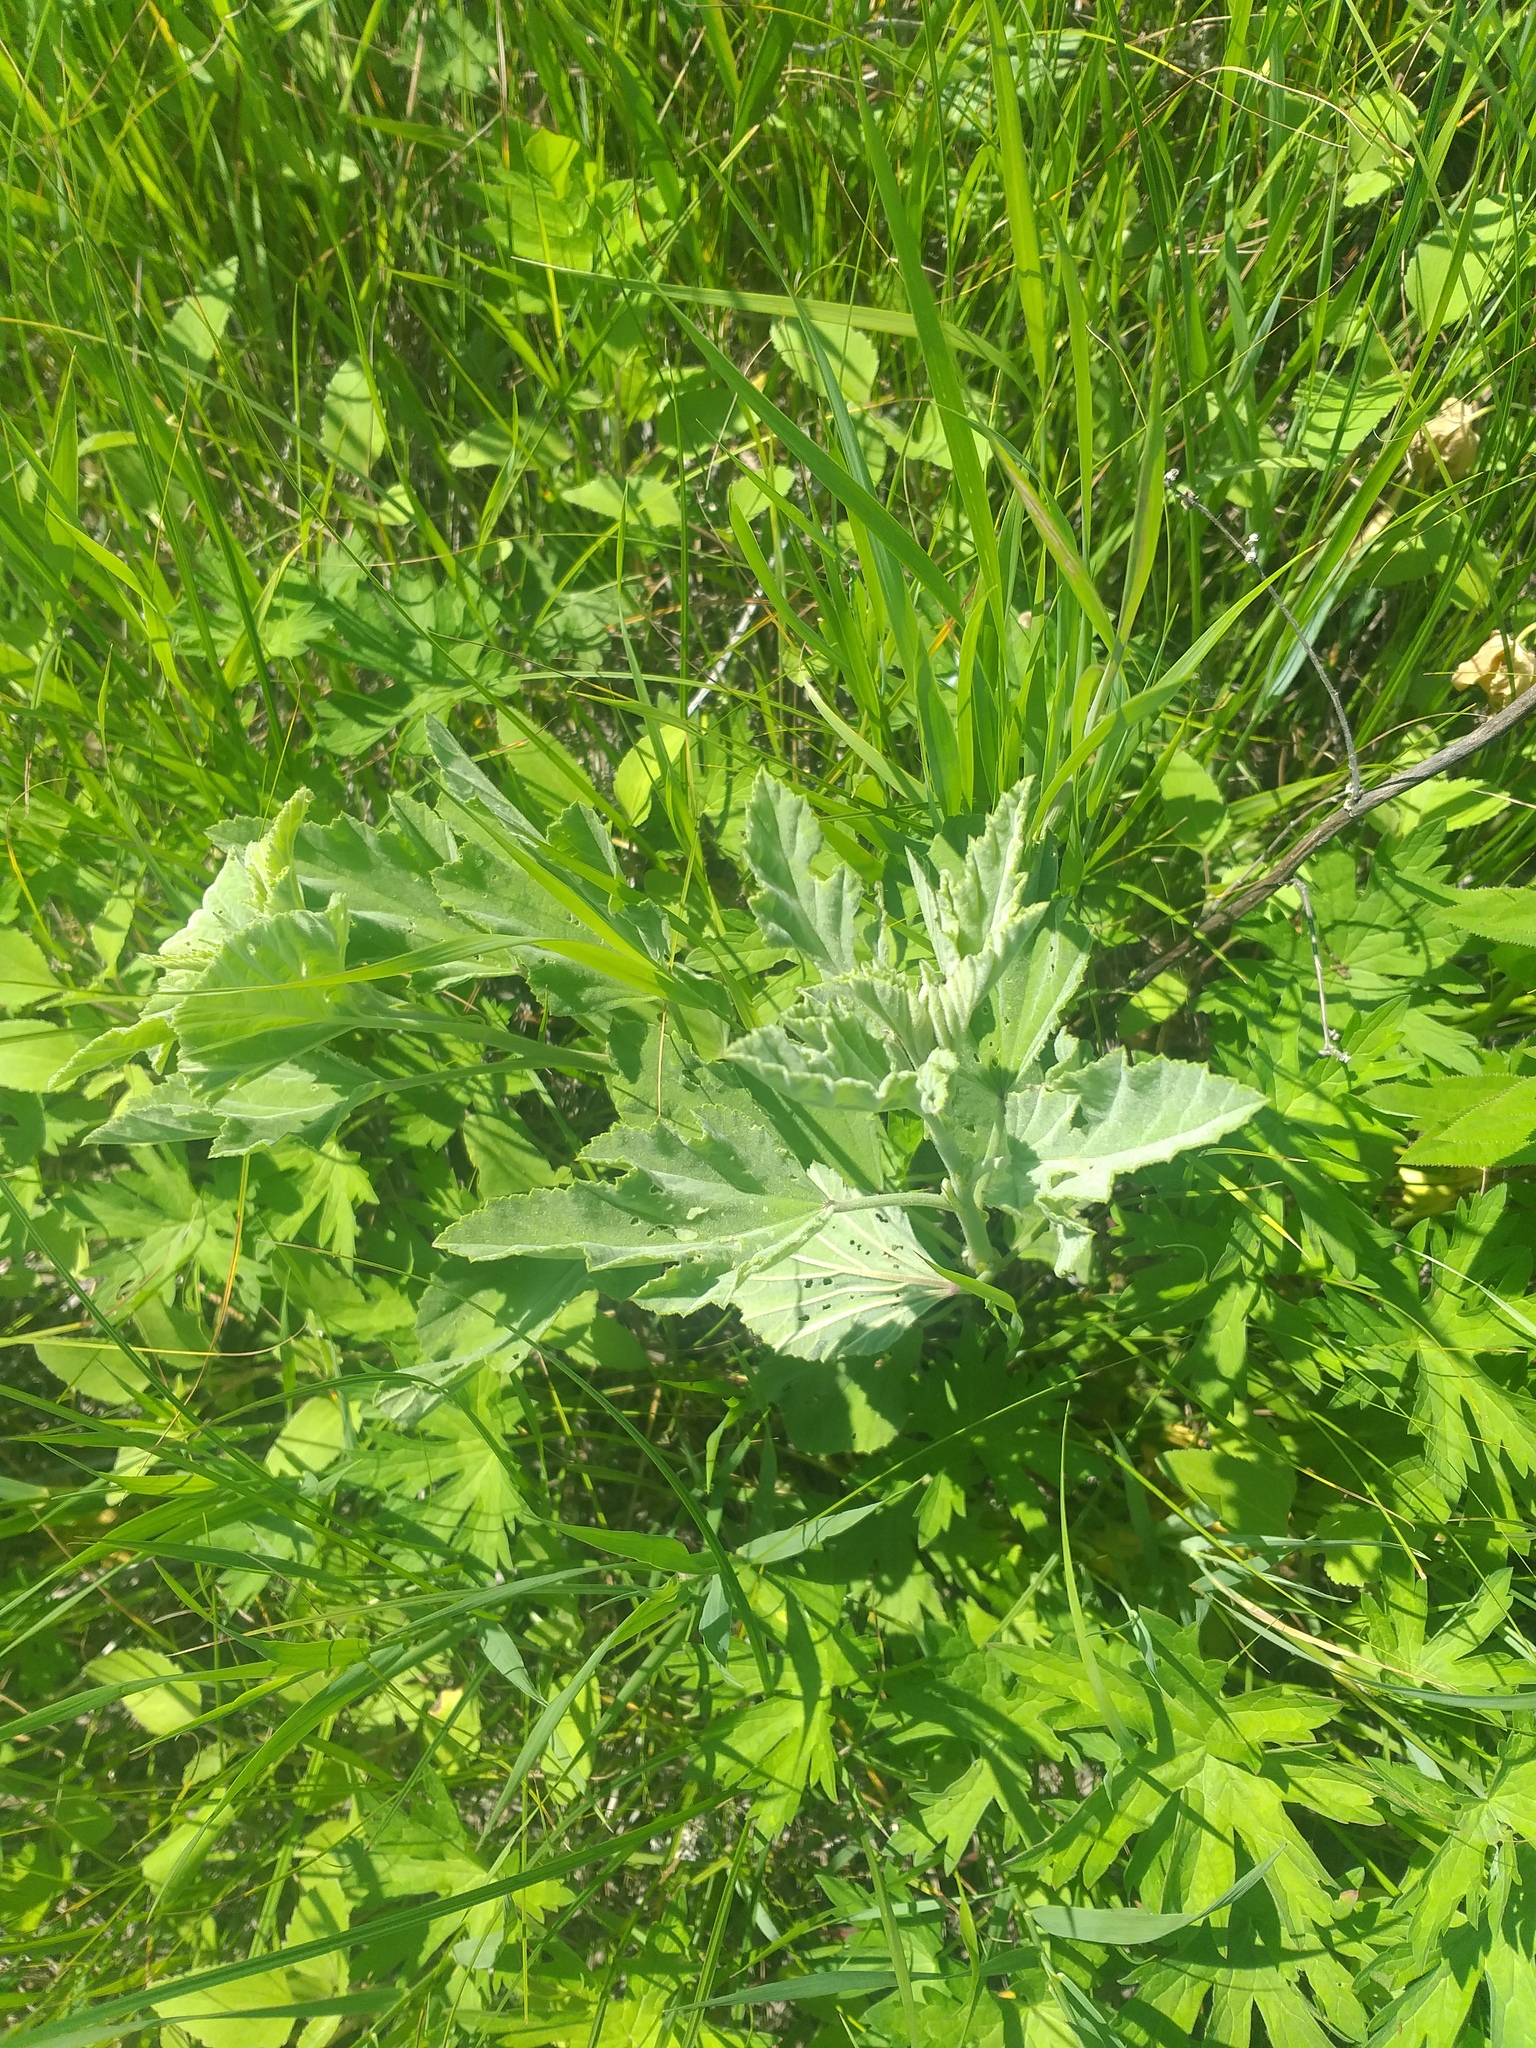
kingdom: Plantae
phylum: Tracheophyta
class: Magnoliopsida
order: Malvales
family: Malvaceae
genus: Althaea
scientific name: Althaea officinalis
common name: Marsh-mallow
